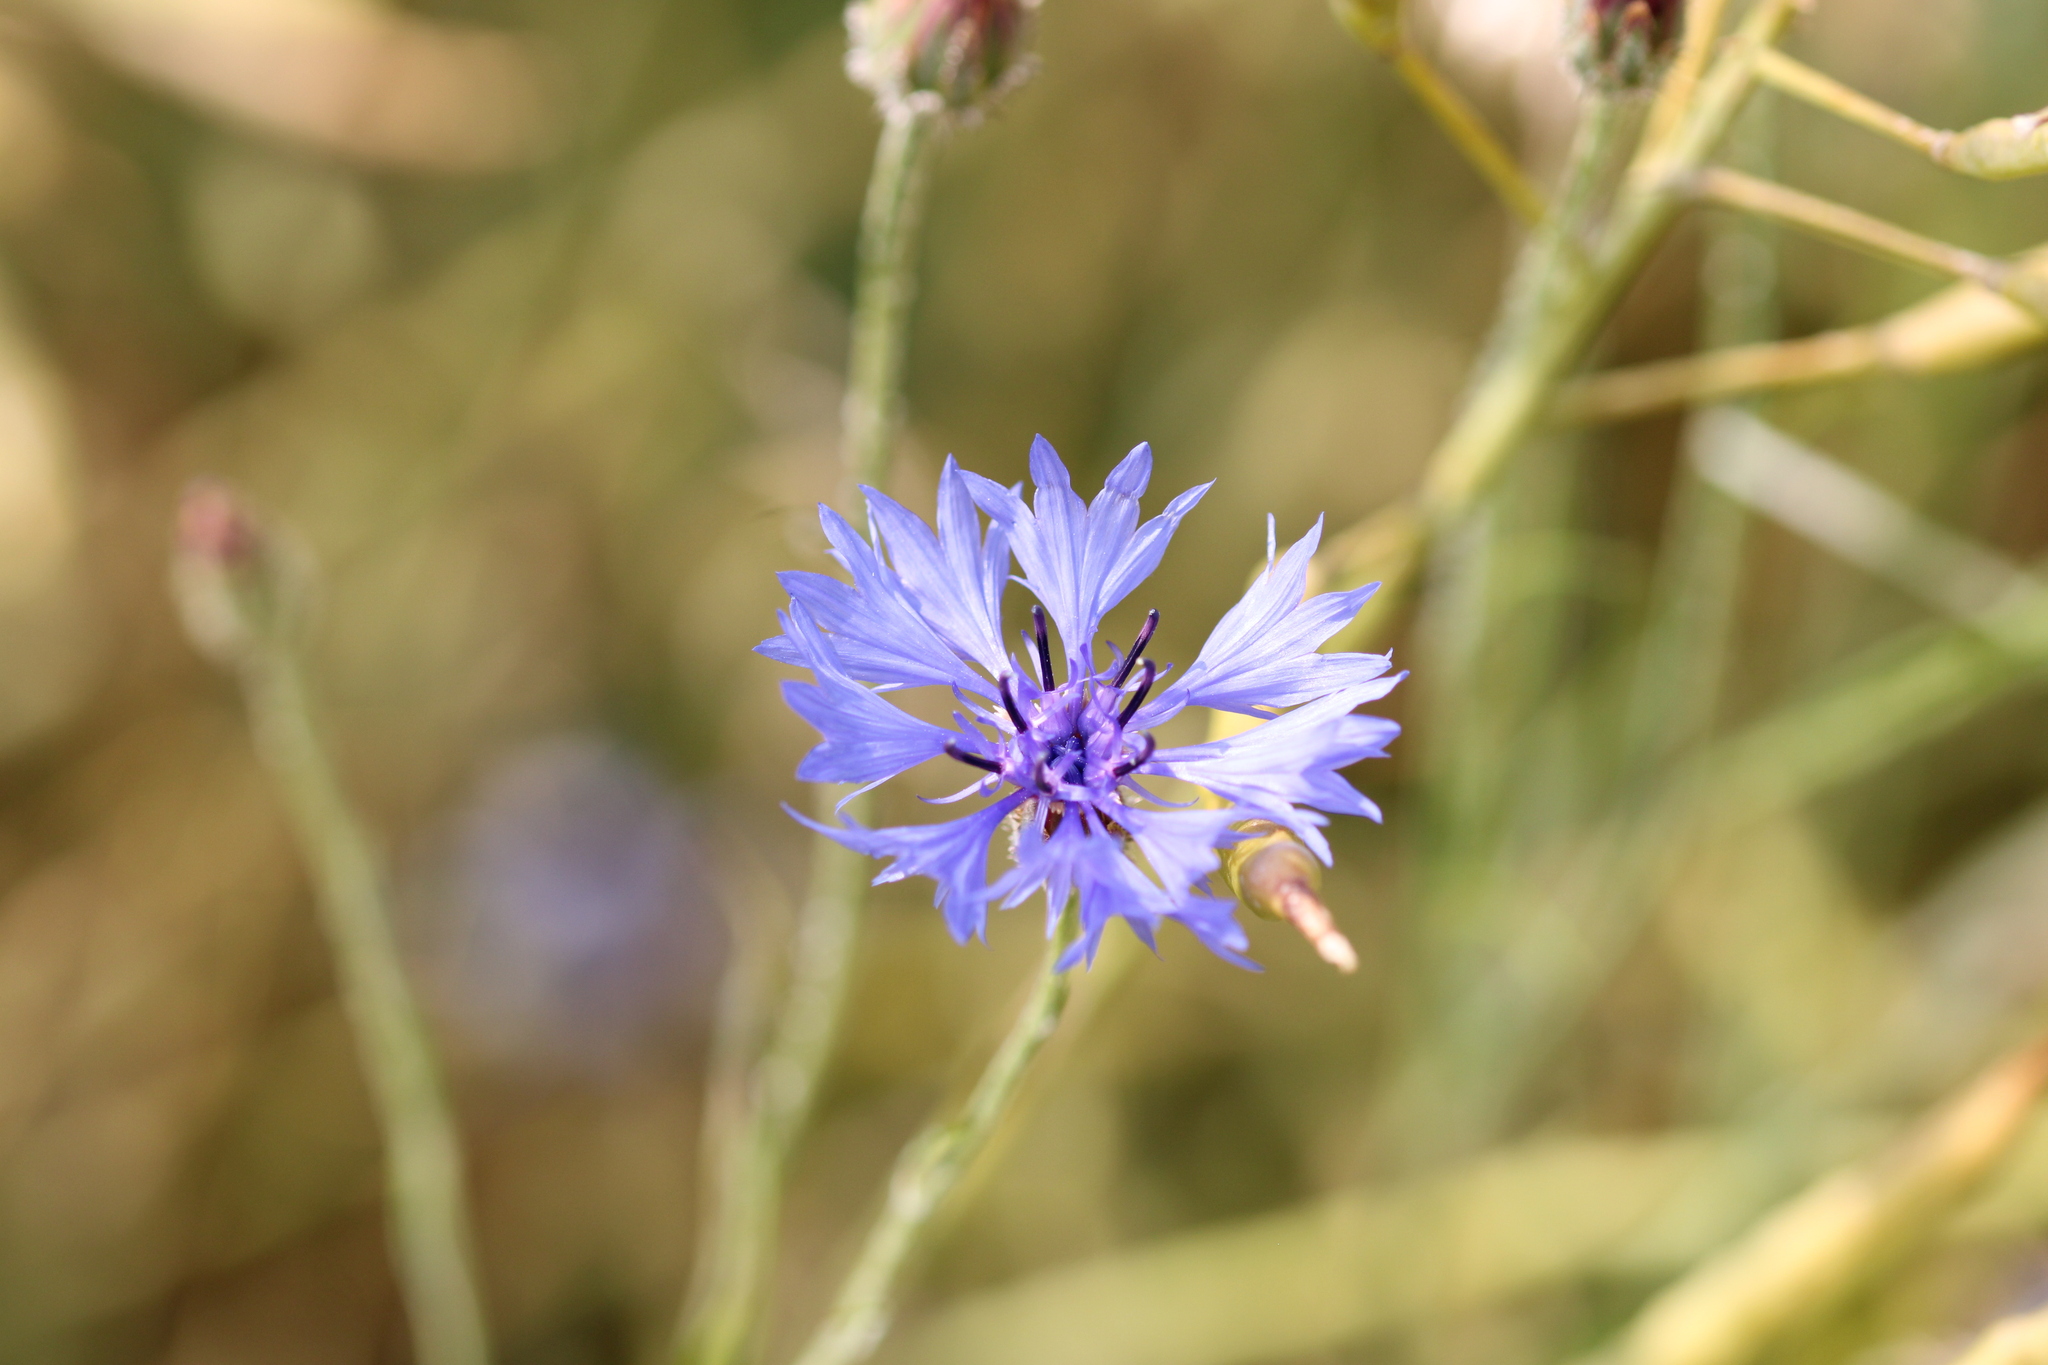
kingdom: Plantae
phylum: Tracheophyta
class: Magnoliopsida
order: Asterales
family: Asteraceae
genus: Centaurea
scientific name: Centaurea cyanus
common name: Cornflower
